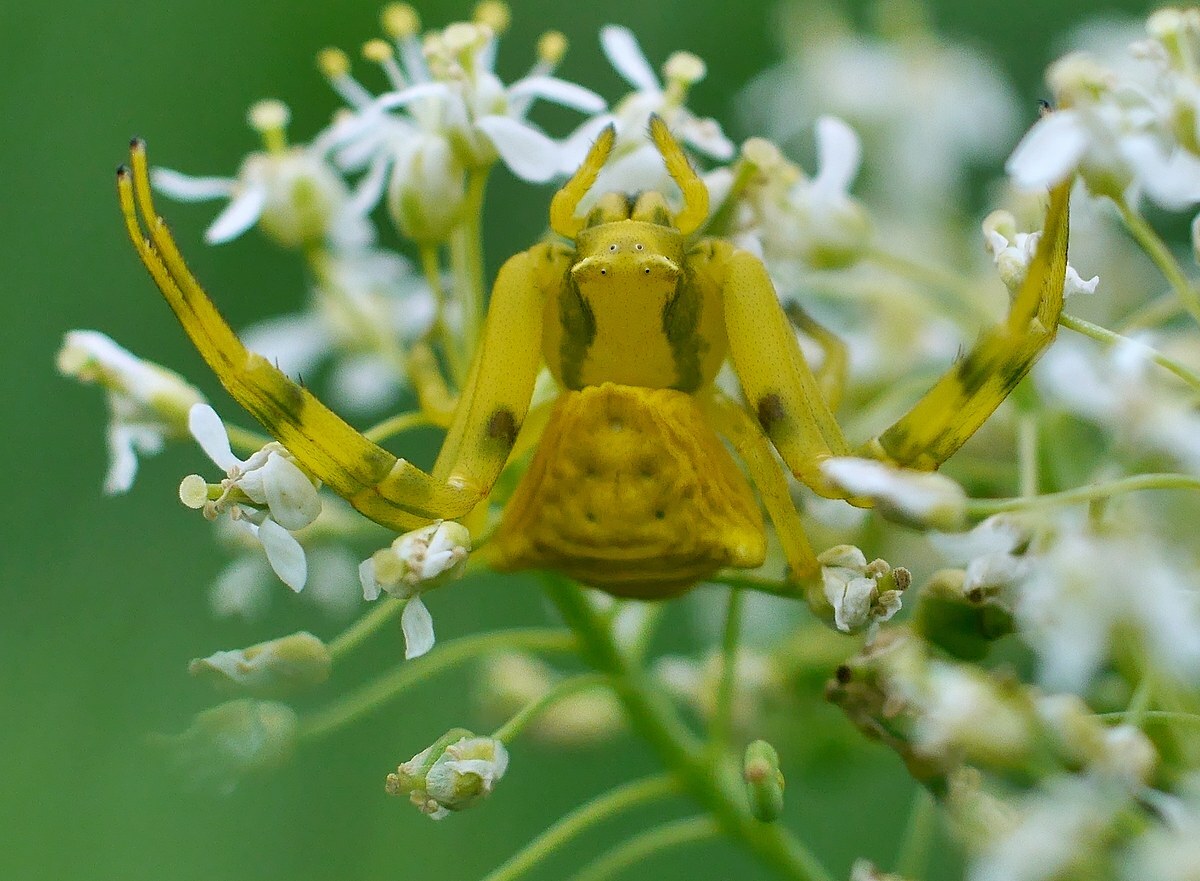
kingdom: Animalia
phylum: Arthropoda
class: Arachnida
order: Araneae
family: Thomisidae
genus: Thomisus
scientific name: Thomisus onustus
